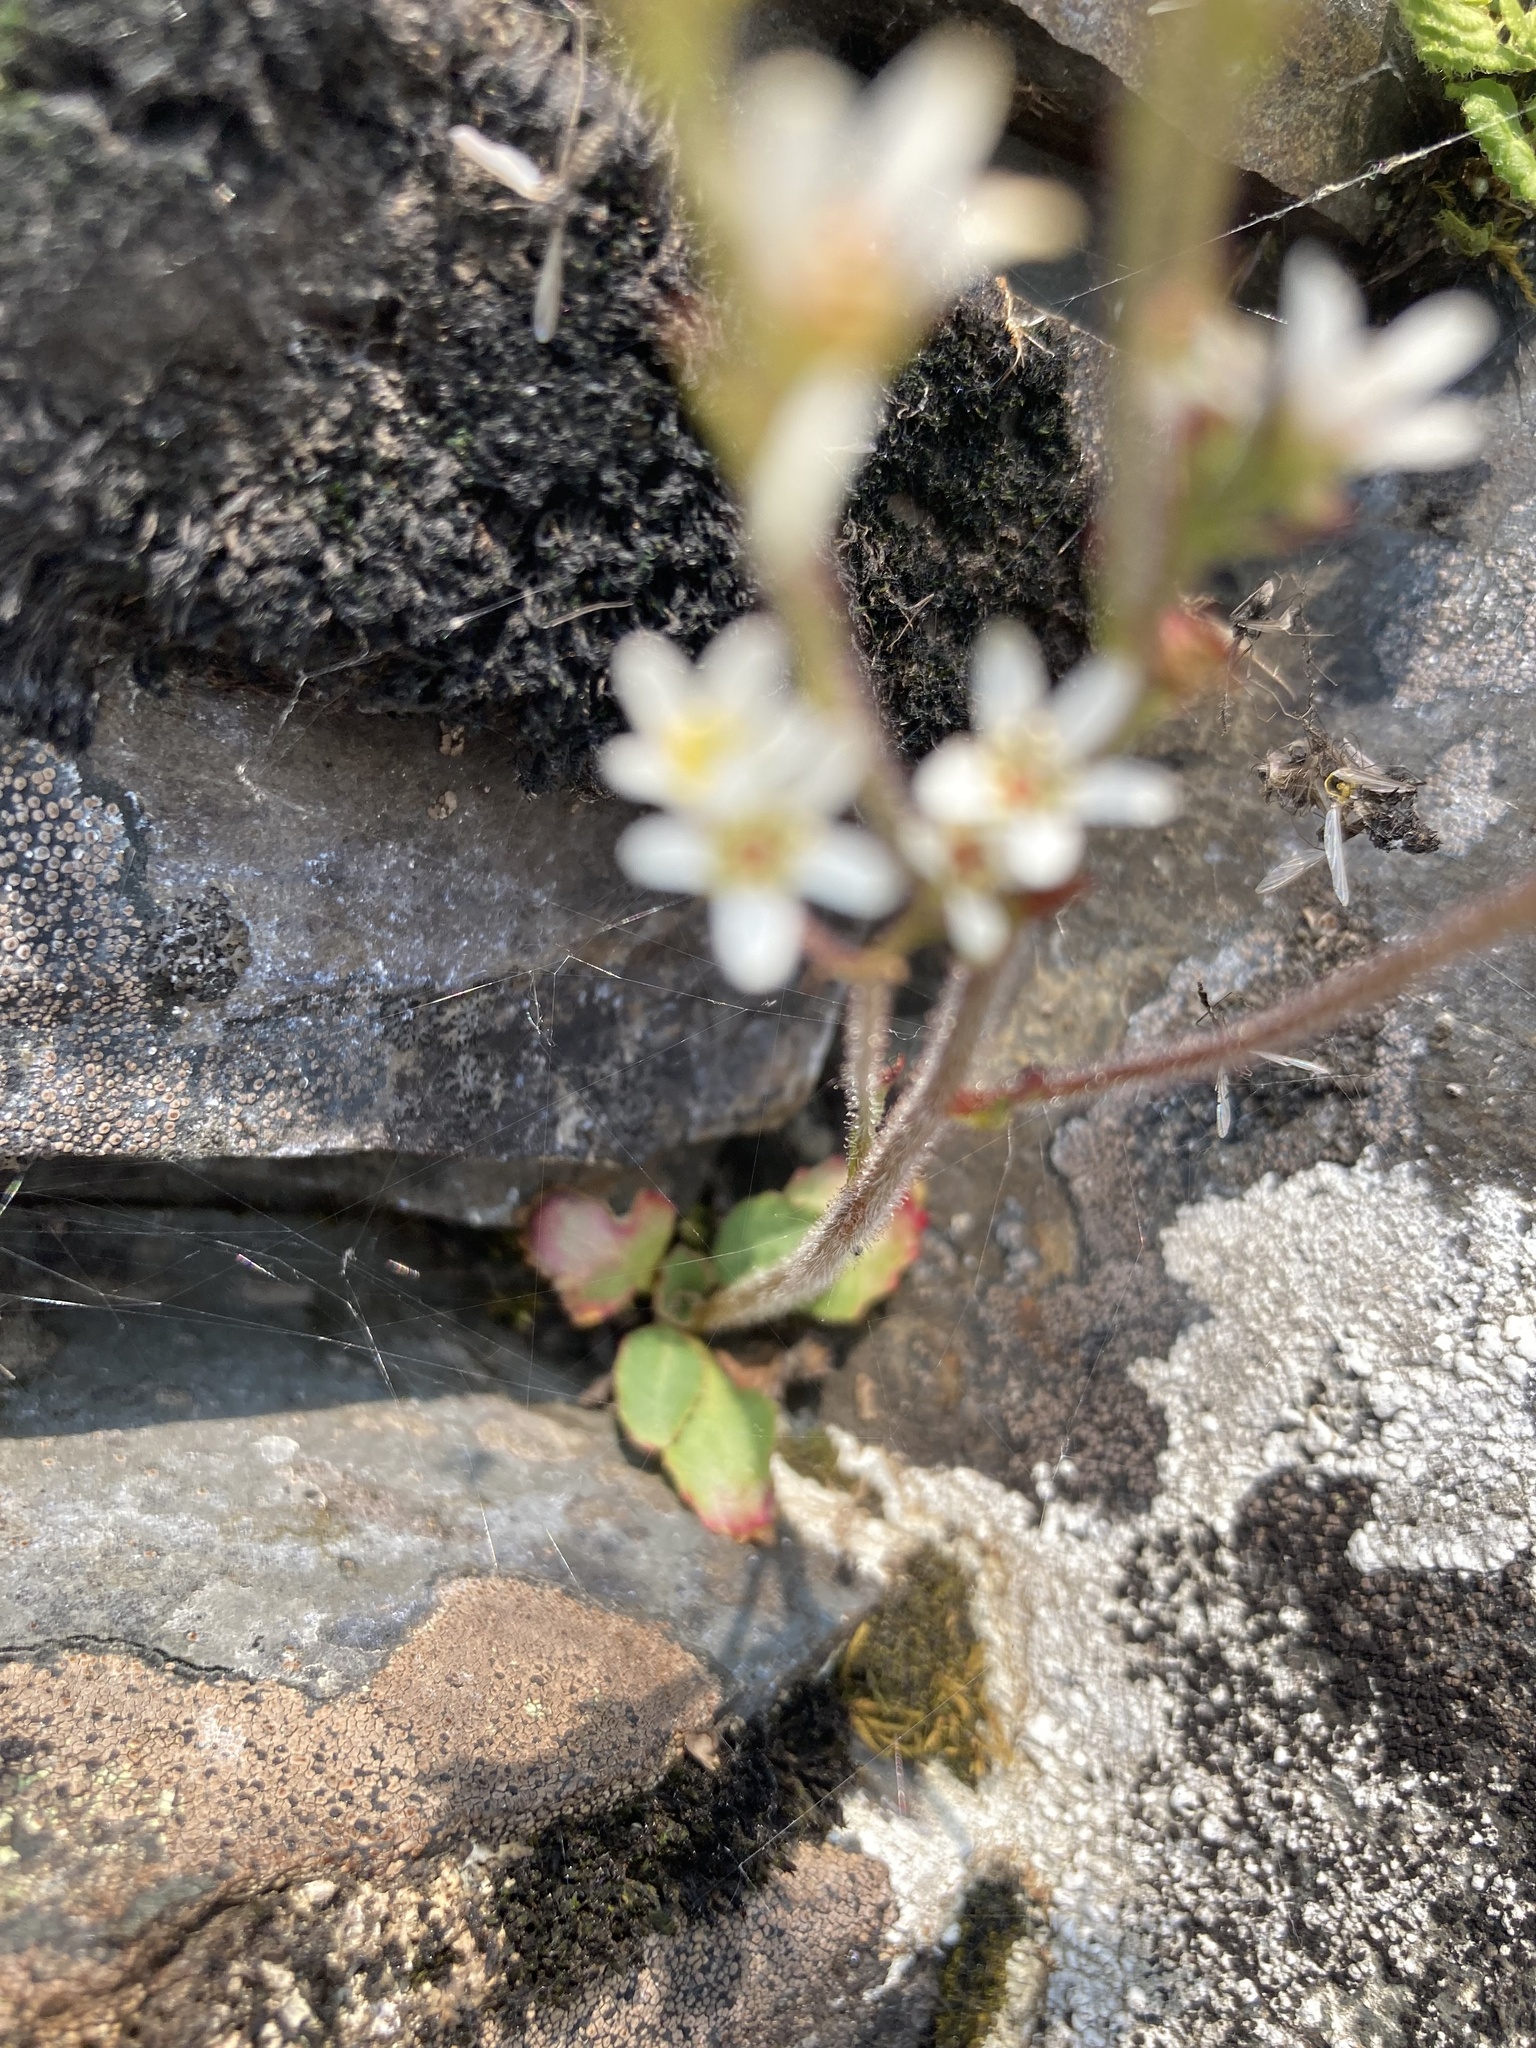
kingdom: Plantae
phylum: Tracheophyta
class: Magnoliopsida
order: Saxifragales
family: Saxifragaceae
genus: Micranthes
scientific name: Micranthes virginiensis
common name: Early saxifrage
